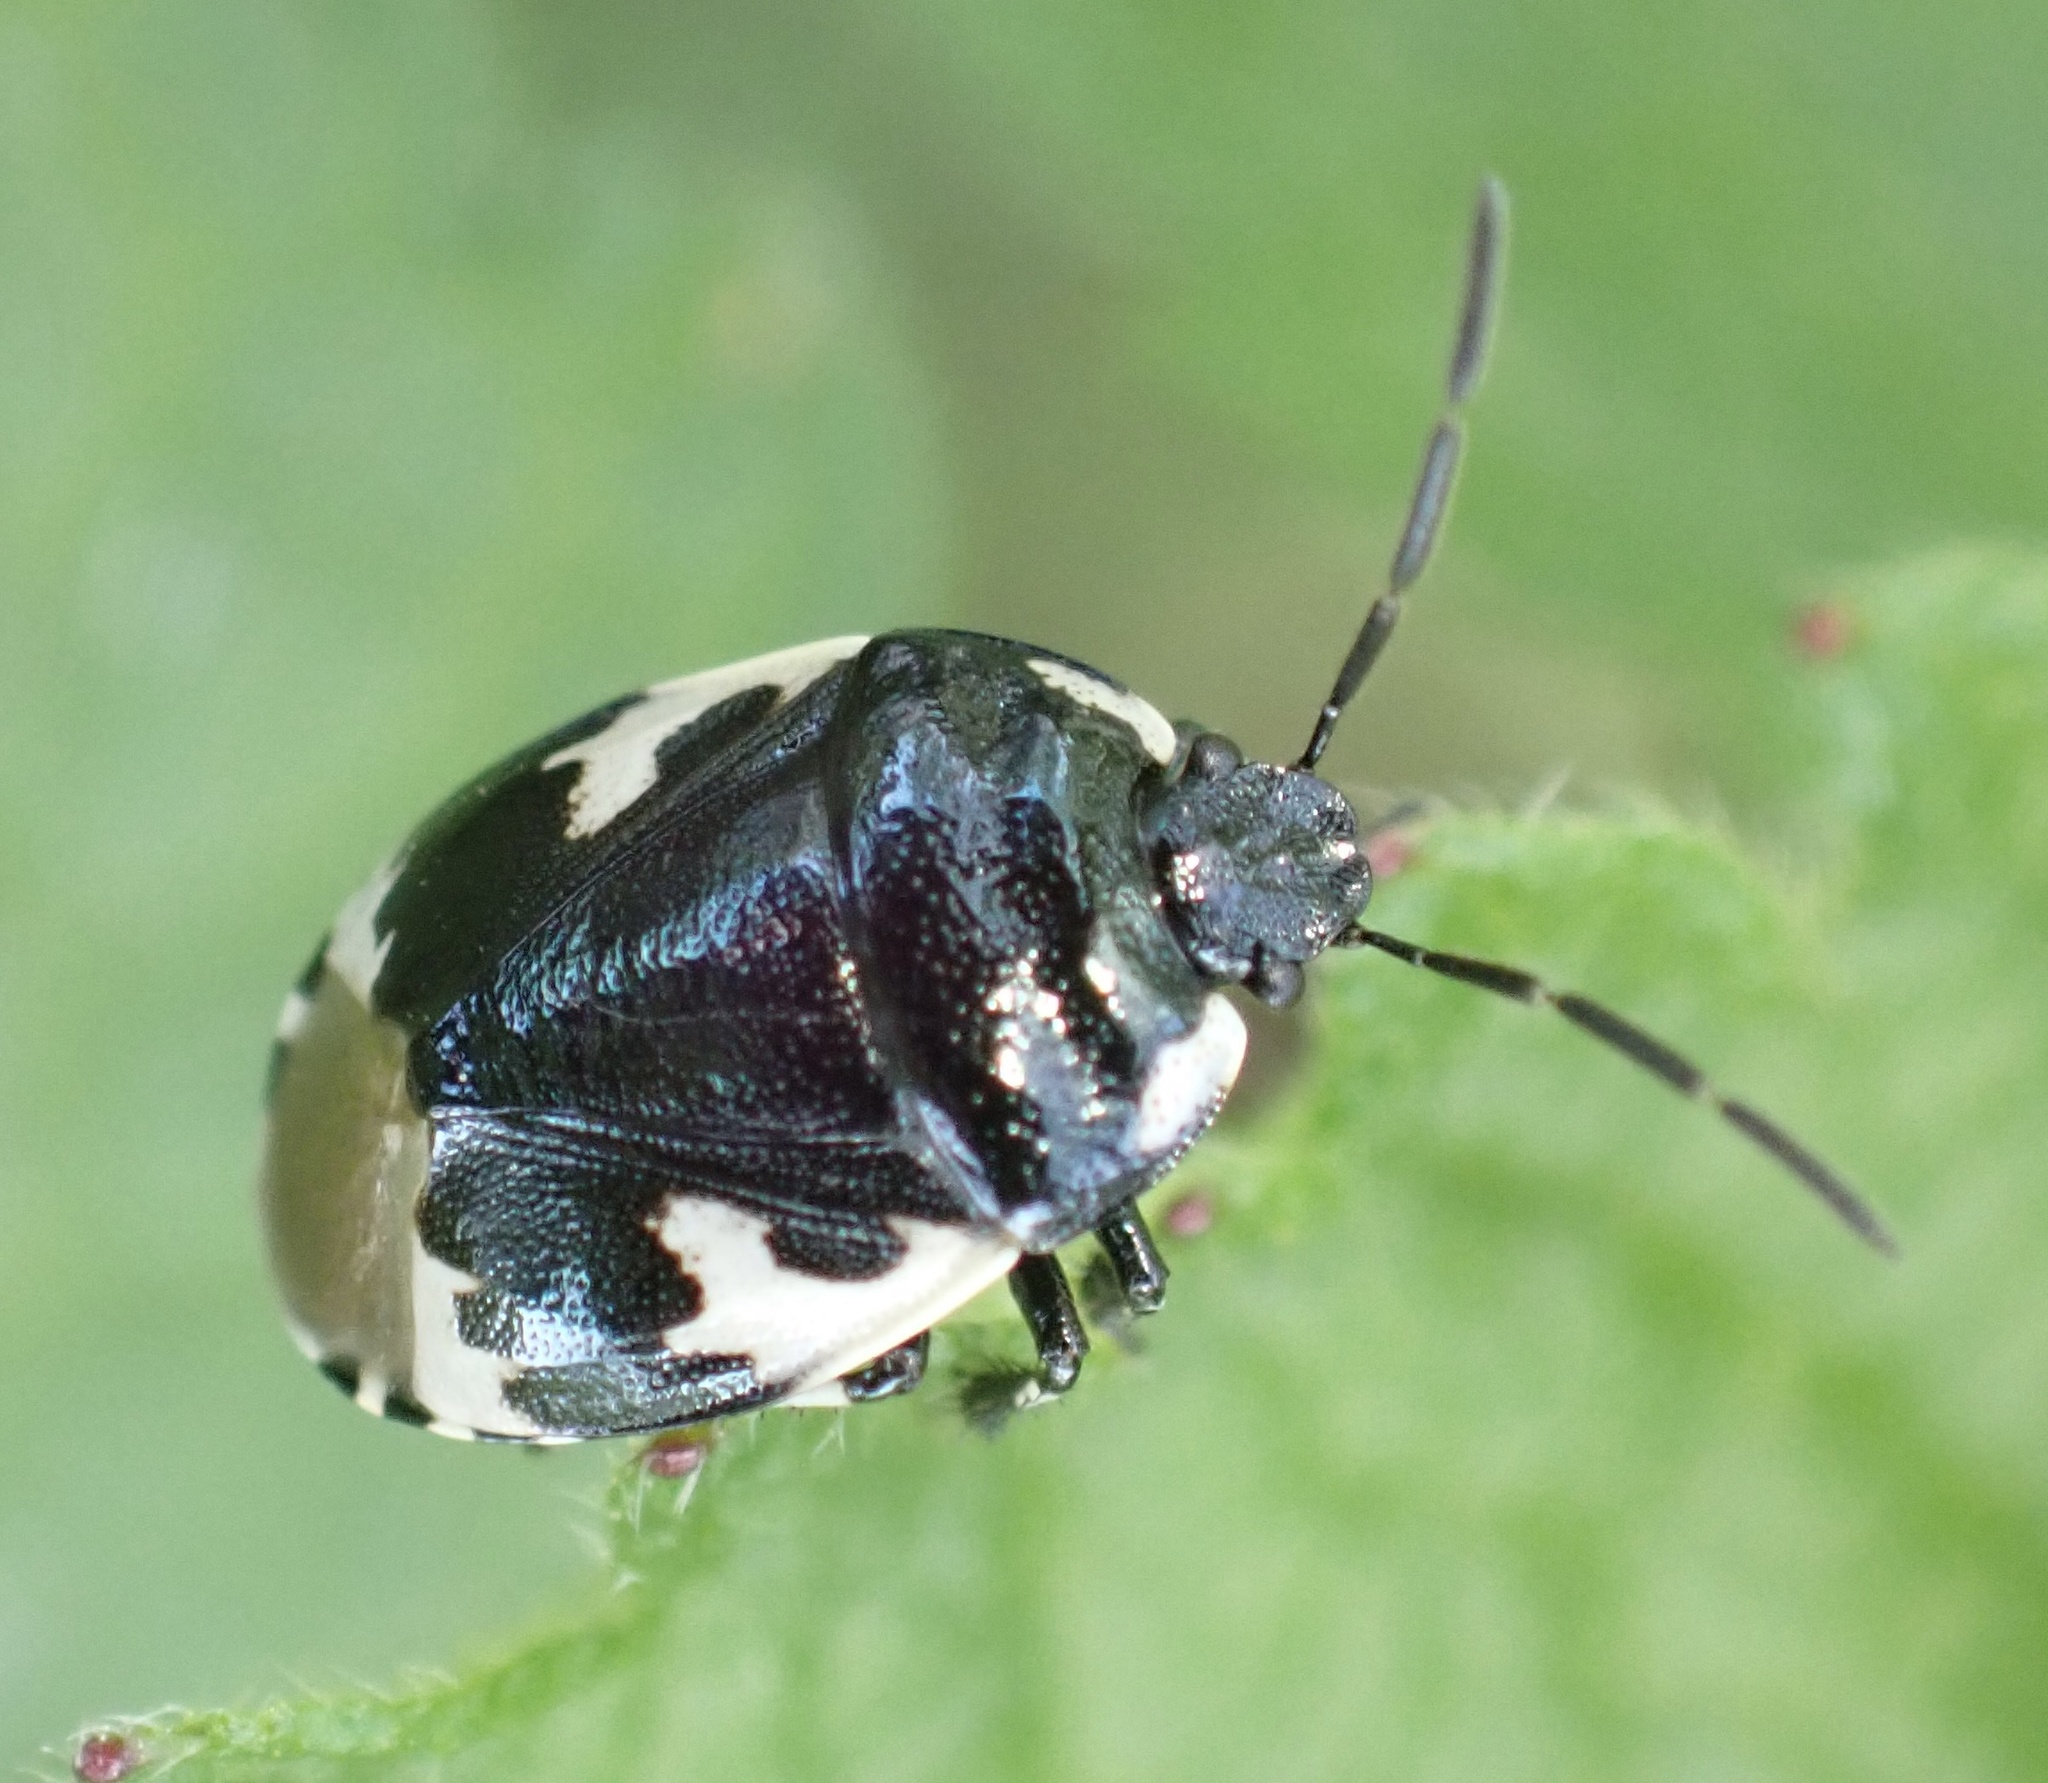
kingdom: Animalia
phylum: Arthropoda
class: Insecta
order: Hemiptera
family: Cydnidae
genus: Tritomegas
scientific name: Tritomegas bicolor
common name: Pied shieldbug
